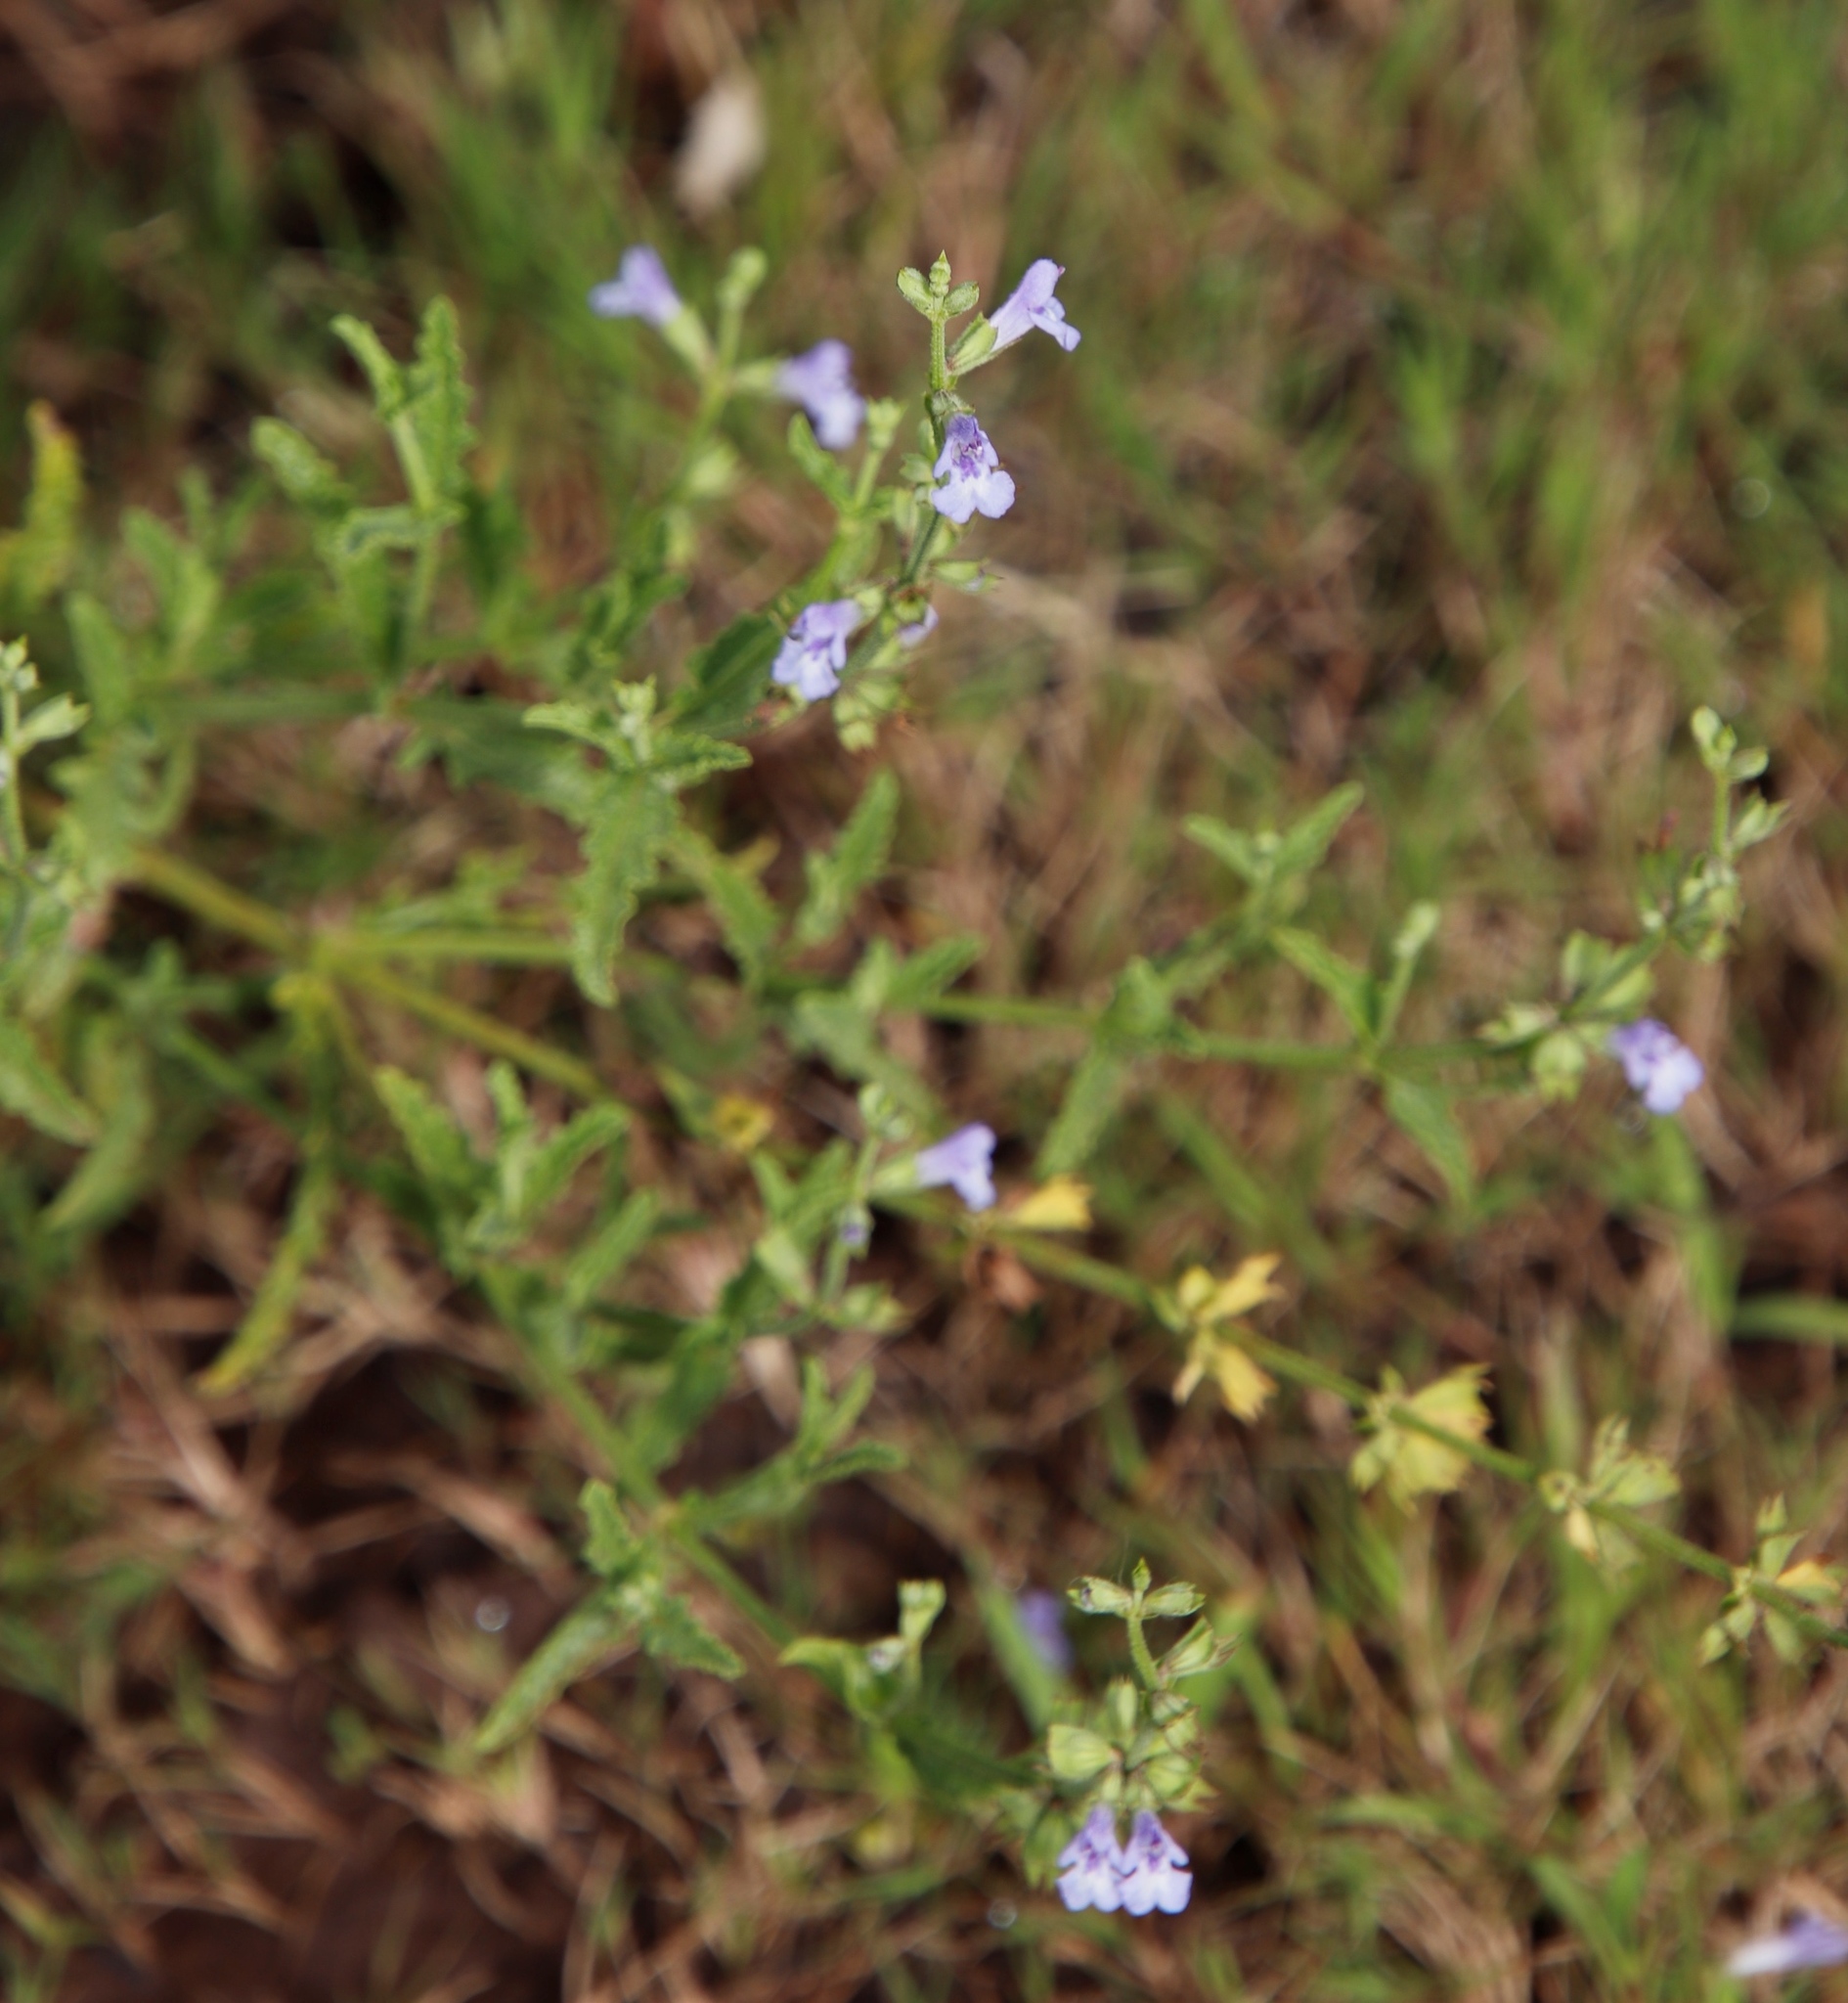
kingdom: Plantae
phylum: Tracheophyta
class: Magnoliopsida
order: Lamiales
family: Lamiaceae
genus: Salvia
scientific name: Salvia stenophylla
